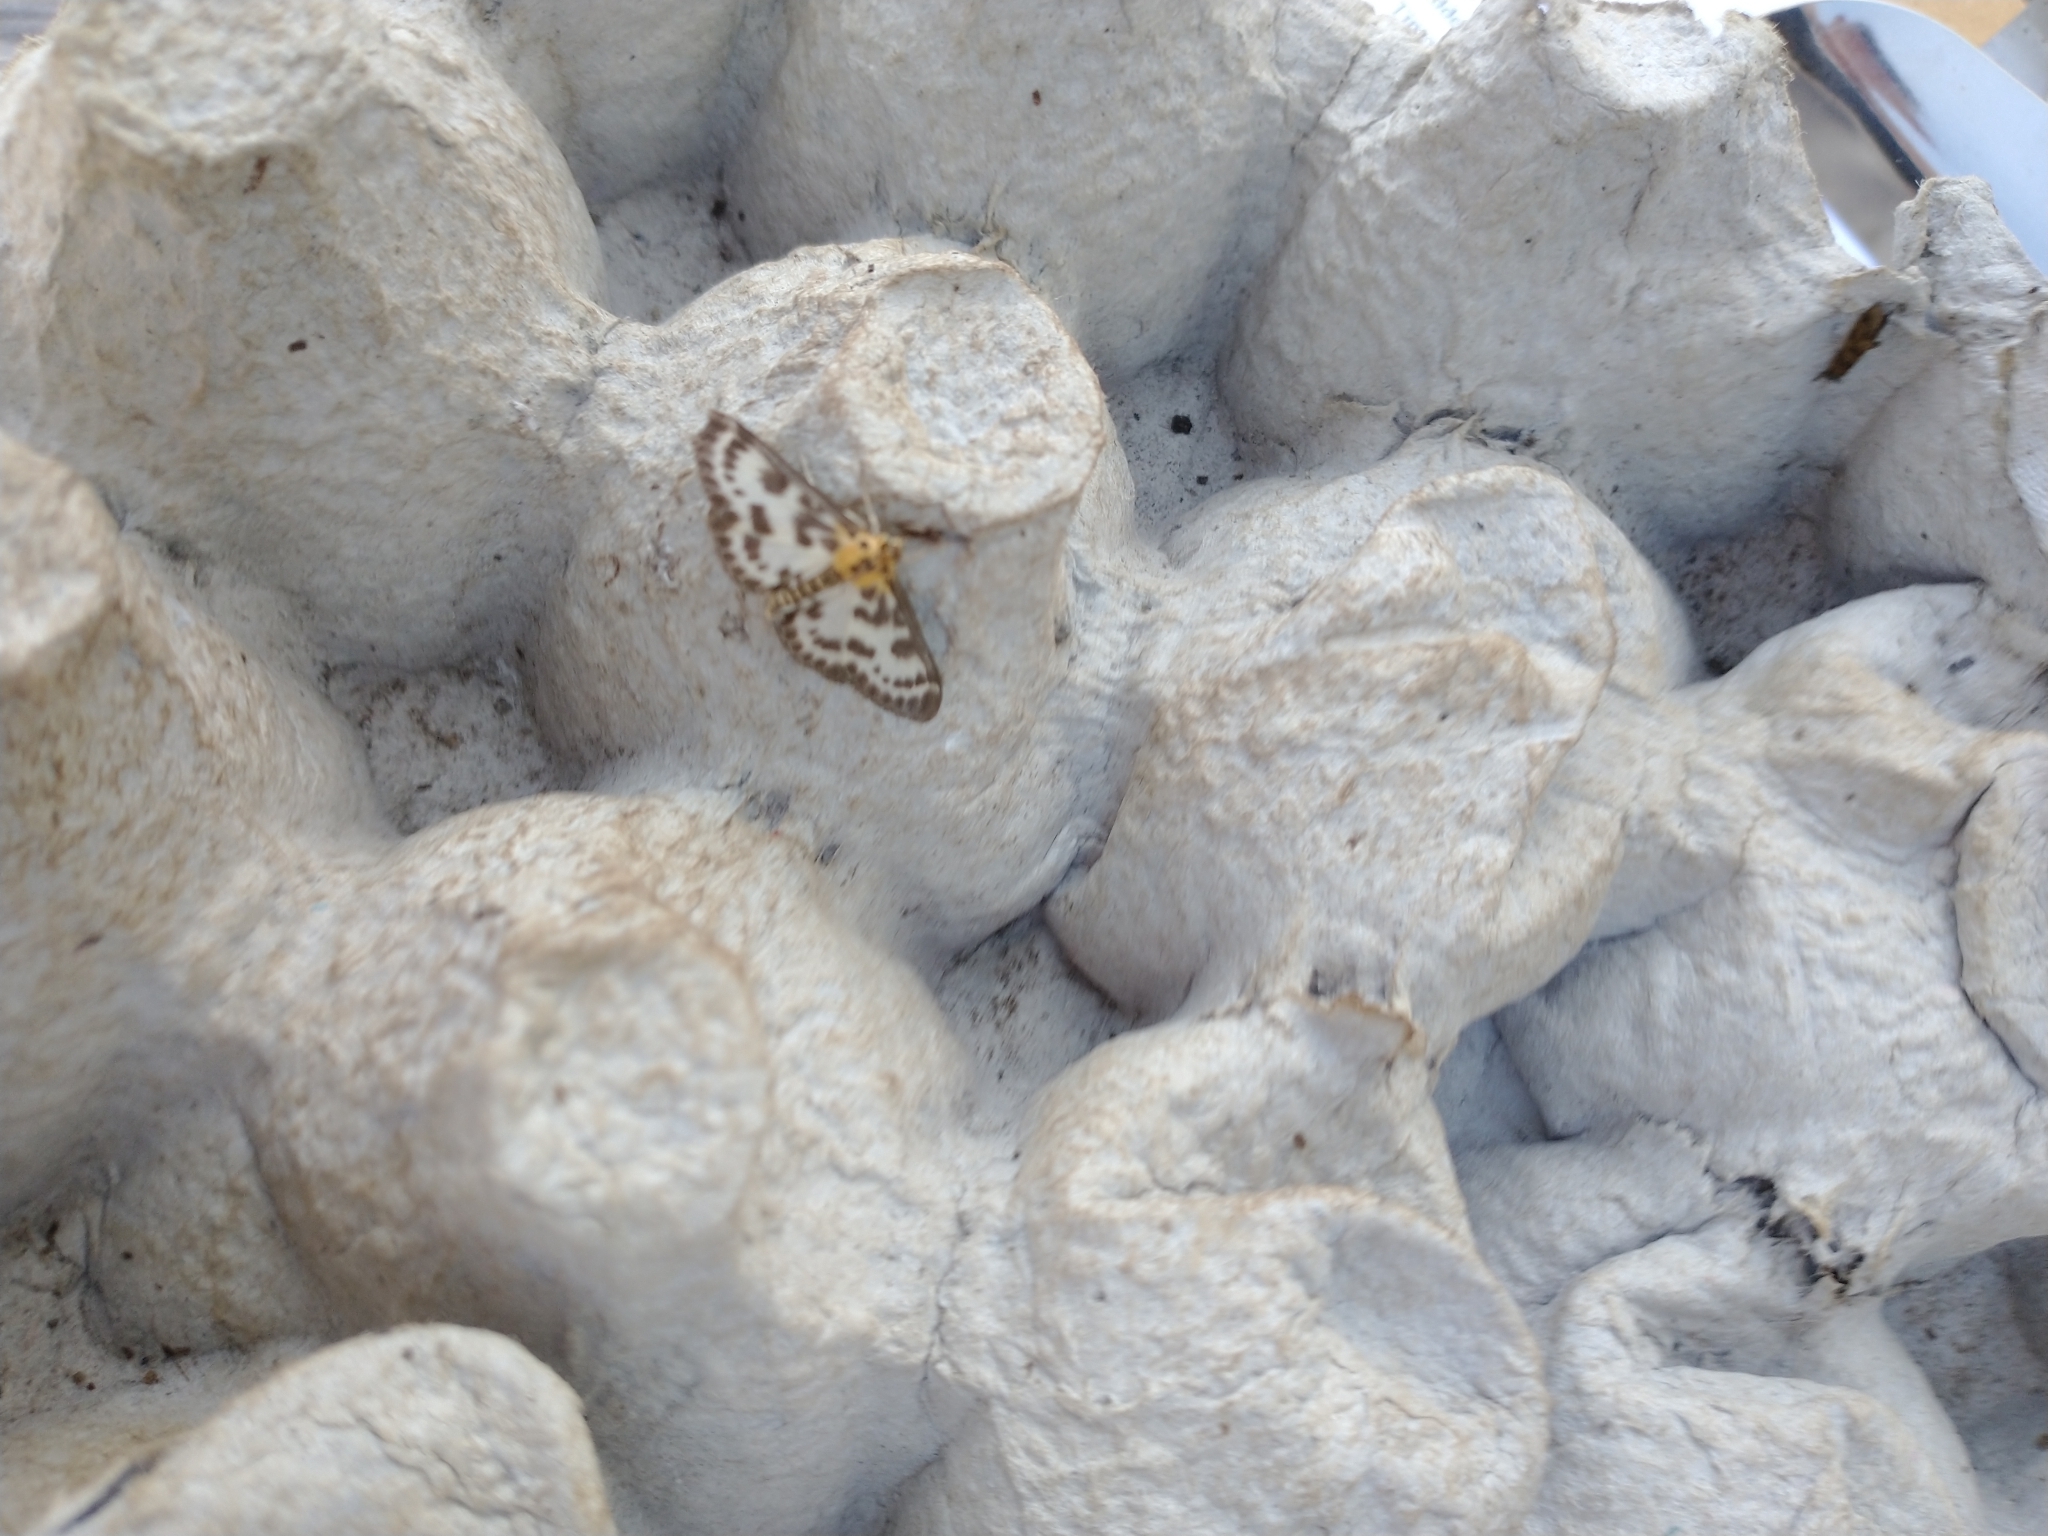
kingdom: Animalia
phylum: Arthropoda
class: Insecta
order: Lepidoptera
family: Crambidae
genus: Anania
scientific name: Anania hortulata
